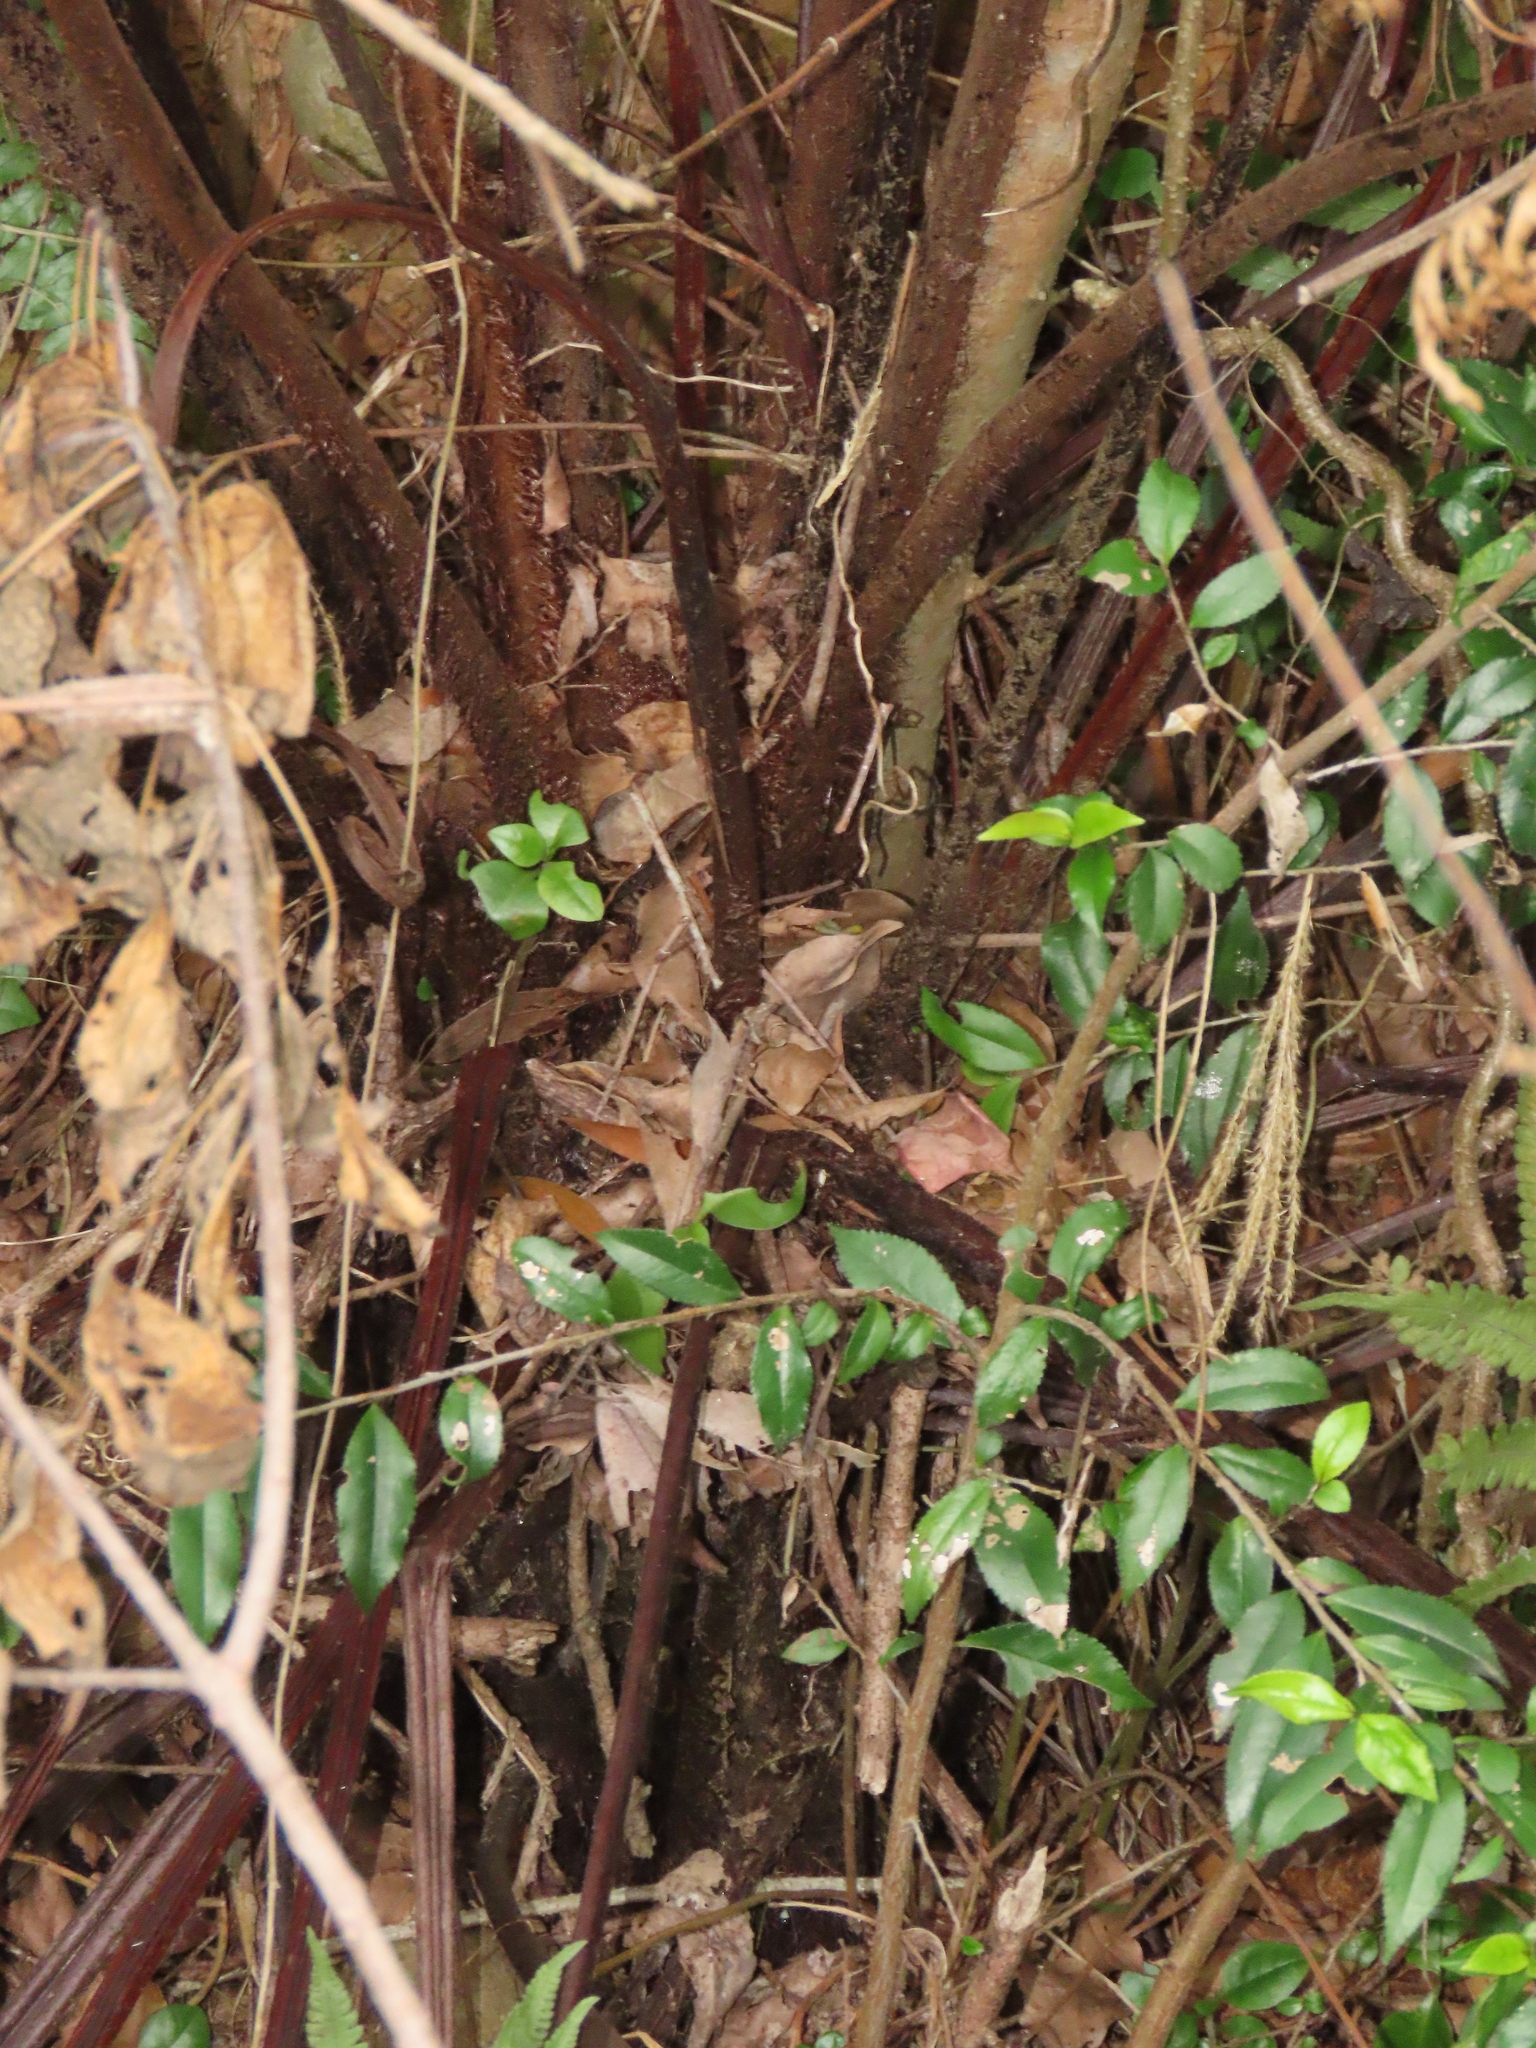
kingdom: Plantae
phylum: Tracheophyta
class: Polypodiopsida
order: Cyatheales
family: Cyatheaceae
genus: Gymnosphaera
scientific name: Gymnosphaera podophylla
